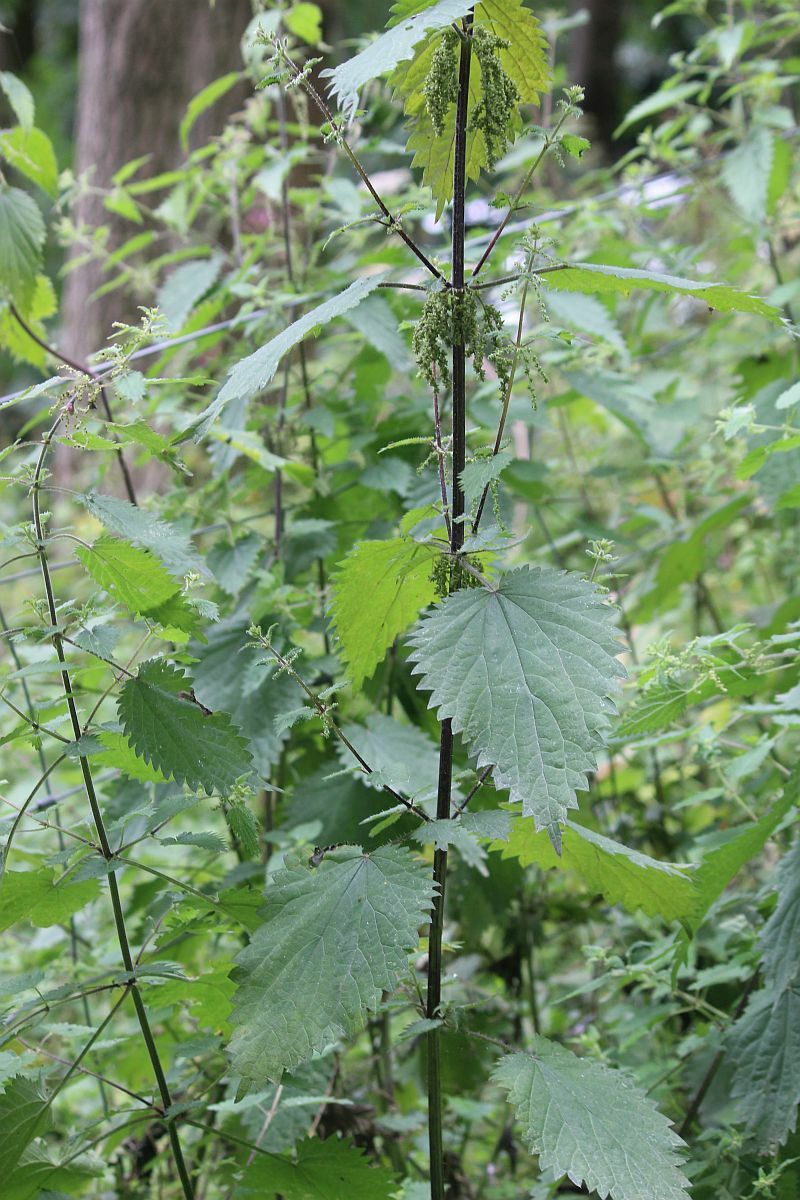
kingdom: Plantae
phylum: Tracheophyta
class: Magnoliopsida
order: Rosales
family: Urticaceae
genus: Urtica
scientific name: Urtica dioica
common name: Common nettle
